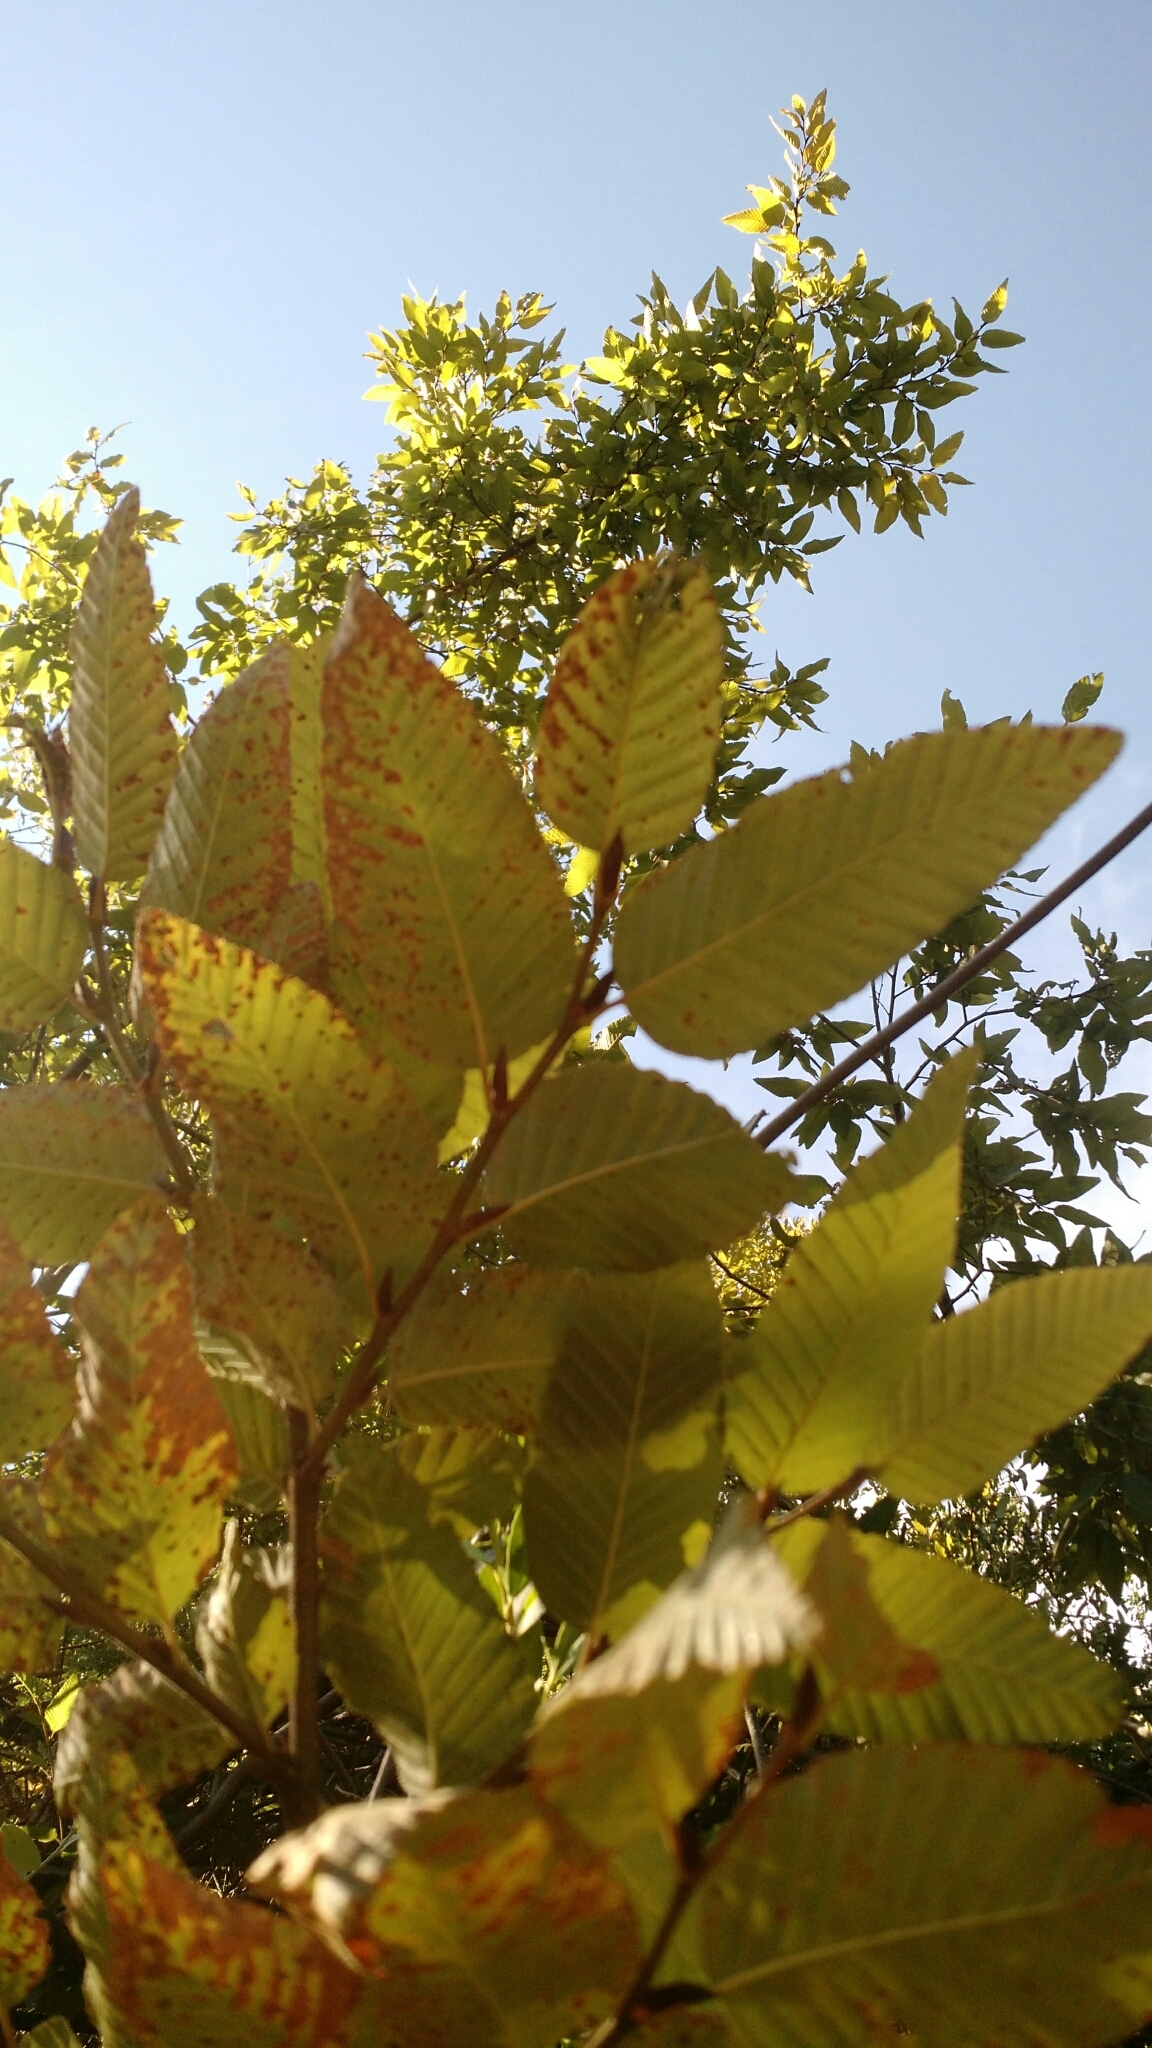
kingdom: Plantae
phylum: Tracheophyta
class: Magnoliopsida
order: Fagales
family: Nothofagaceae
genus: Nothofagus
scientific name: Nothofagus alpina
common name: Rauli
